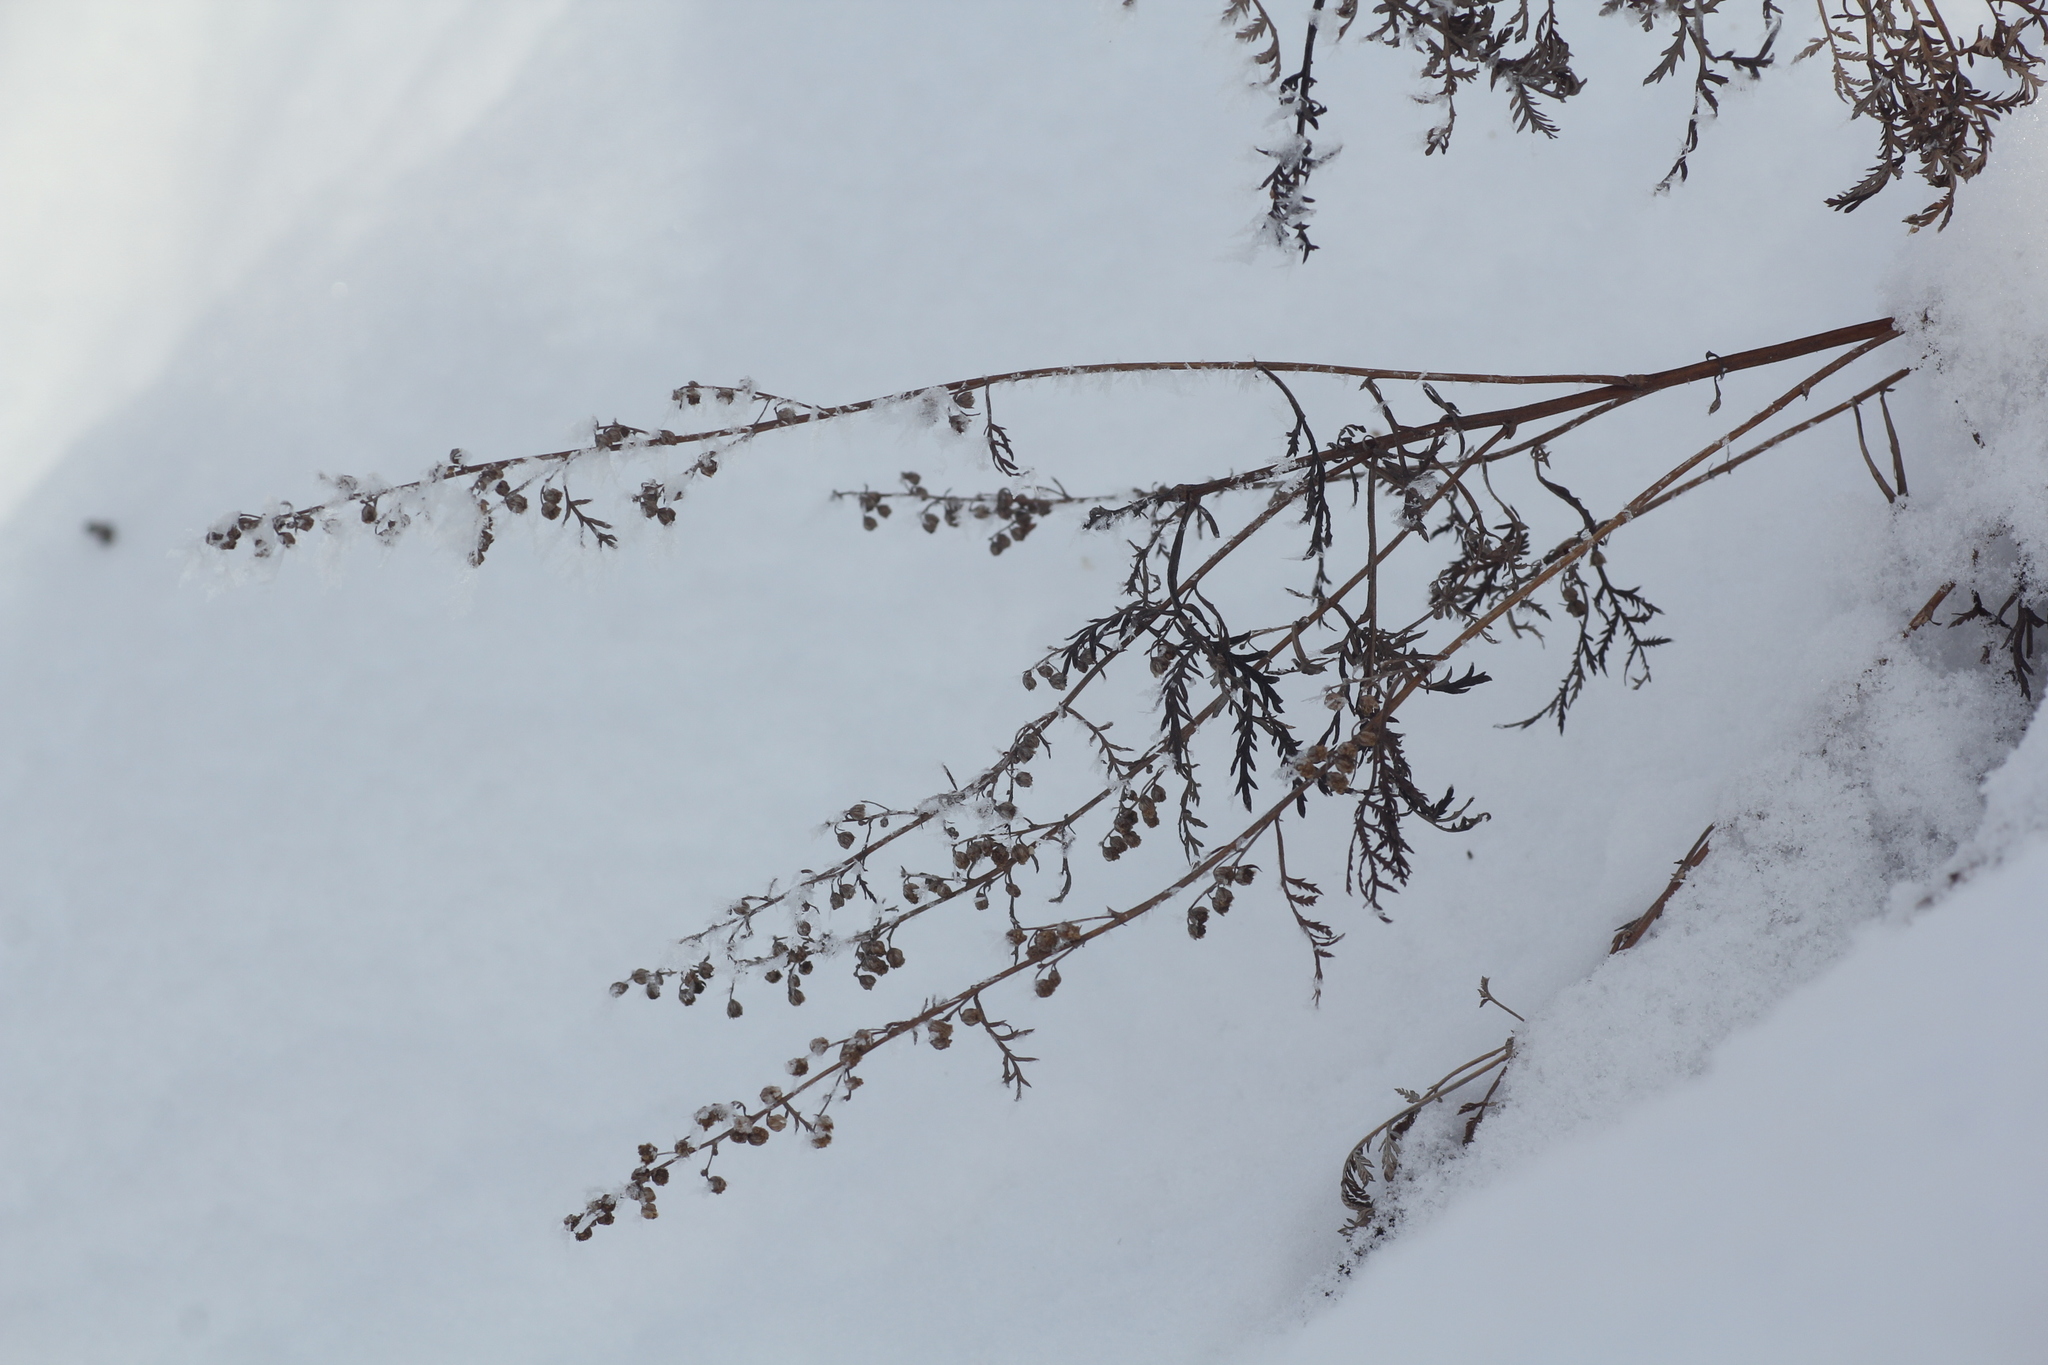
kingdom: Plantae
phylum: Tracheophyta
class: Magnoliopsida
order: Asterales
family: Asteraceae
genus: Artemisia
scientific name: Artemisia gmelinii
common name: Gmelin's wormwood
